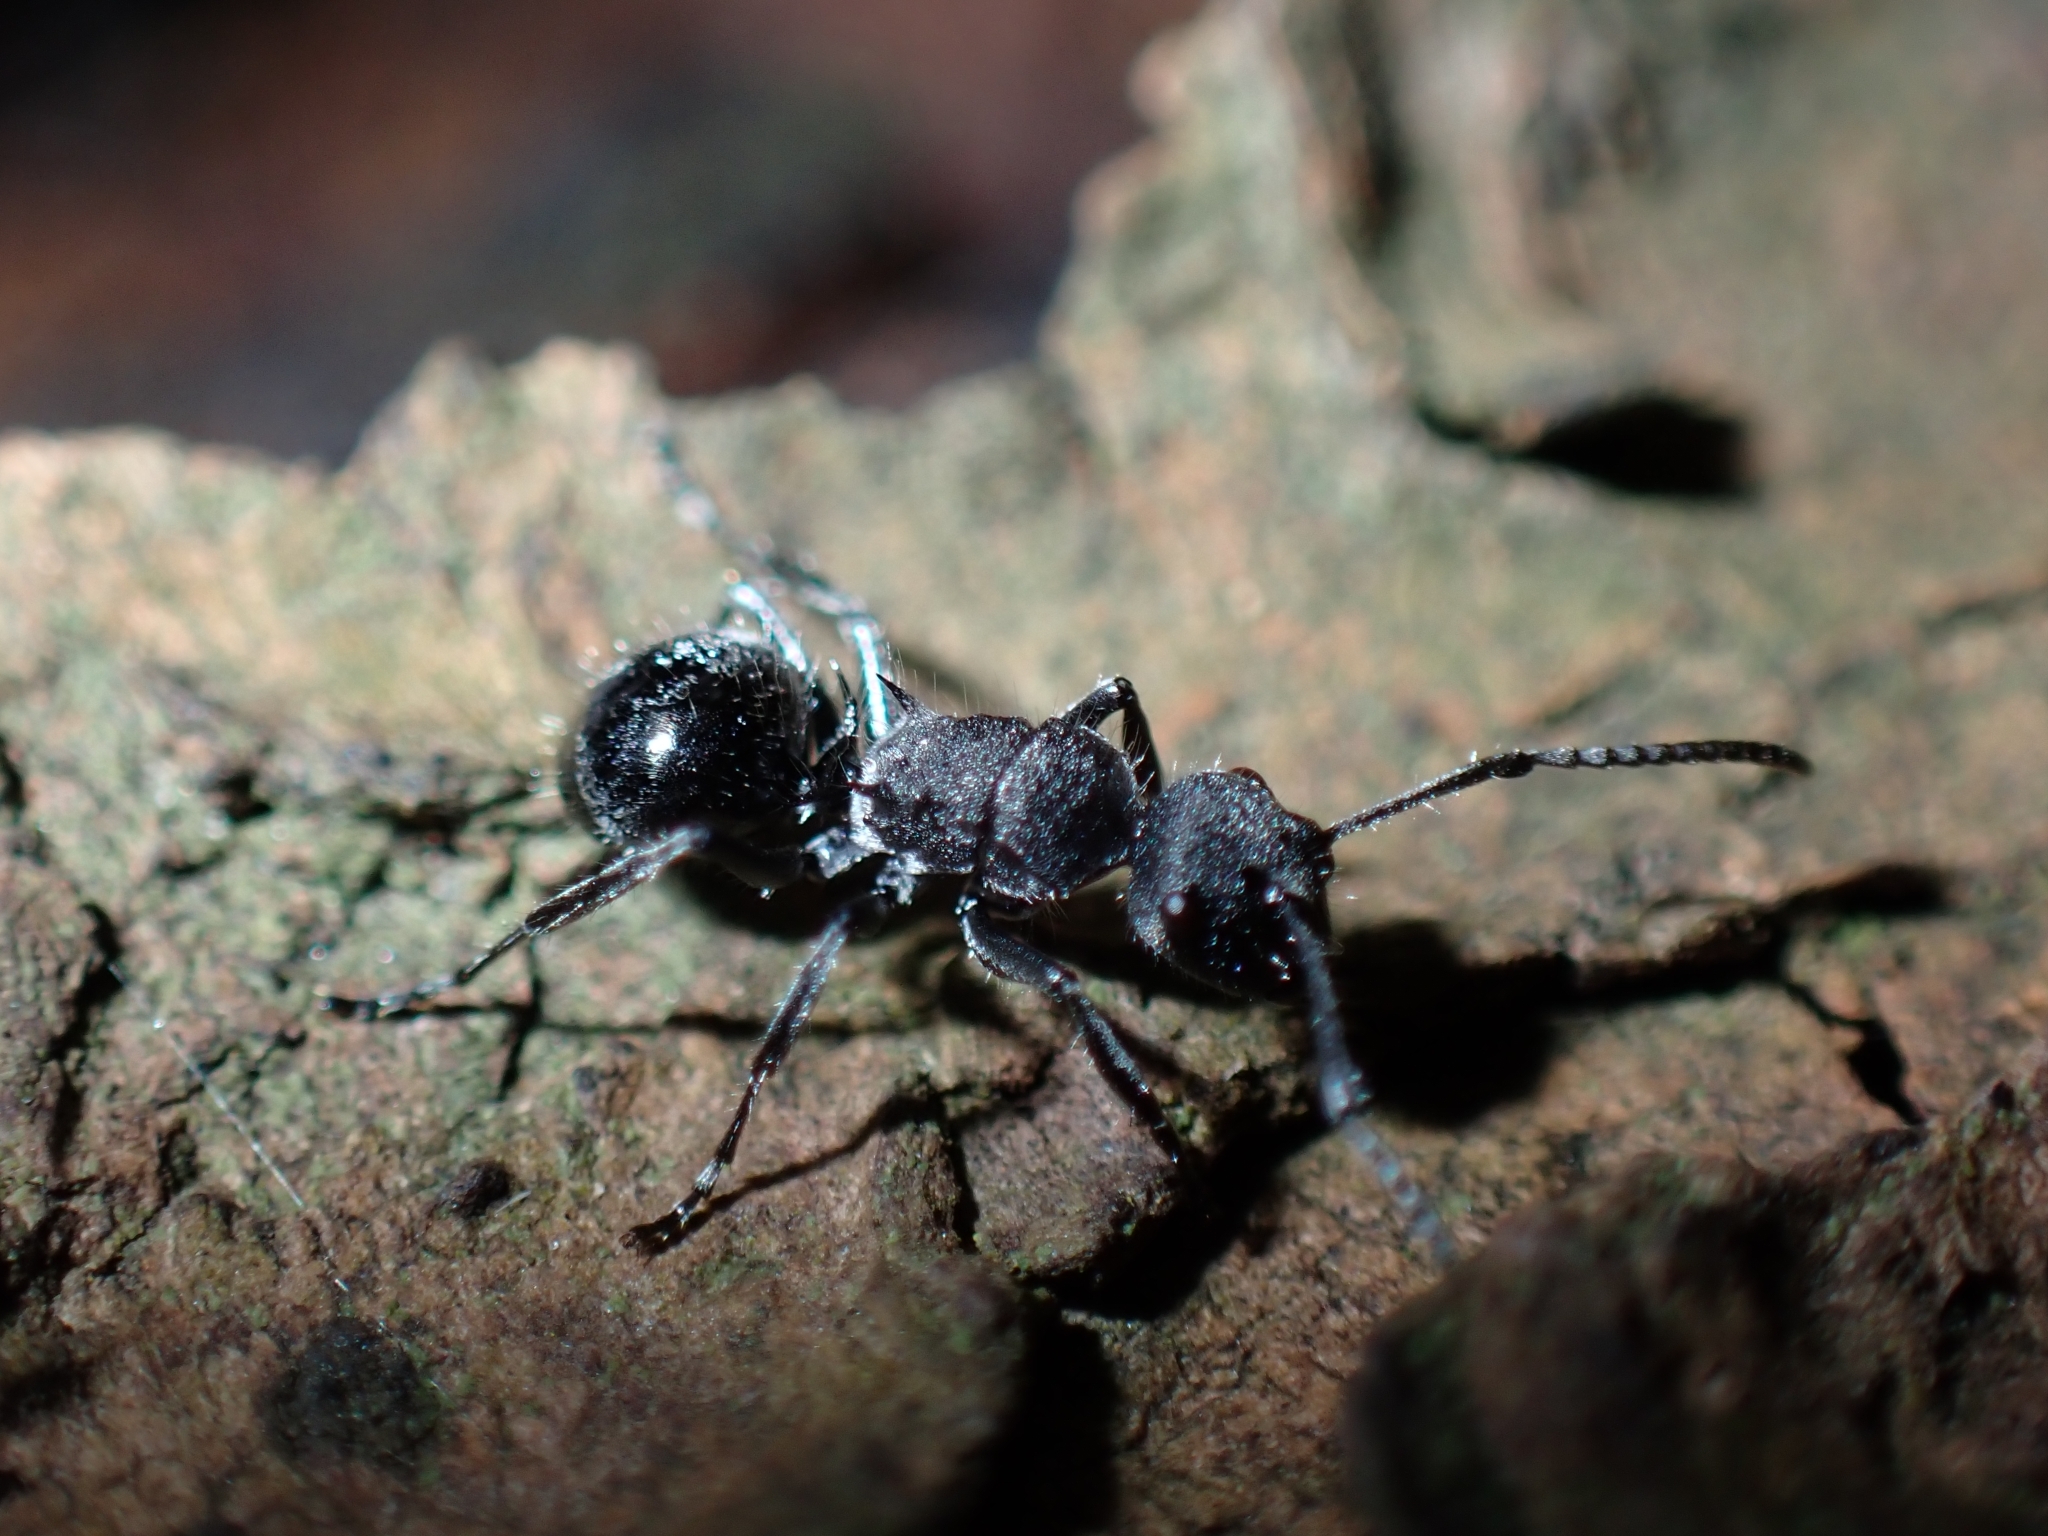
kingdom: Animalia
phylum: Arthropoda
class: Insecta
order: Hymenoptera
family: Formicidae
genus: Polyrhachis
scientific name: Polyrhachis aurea
